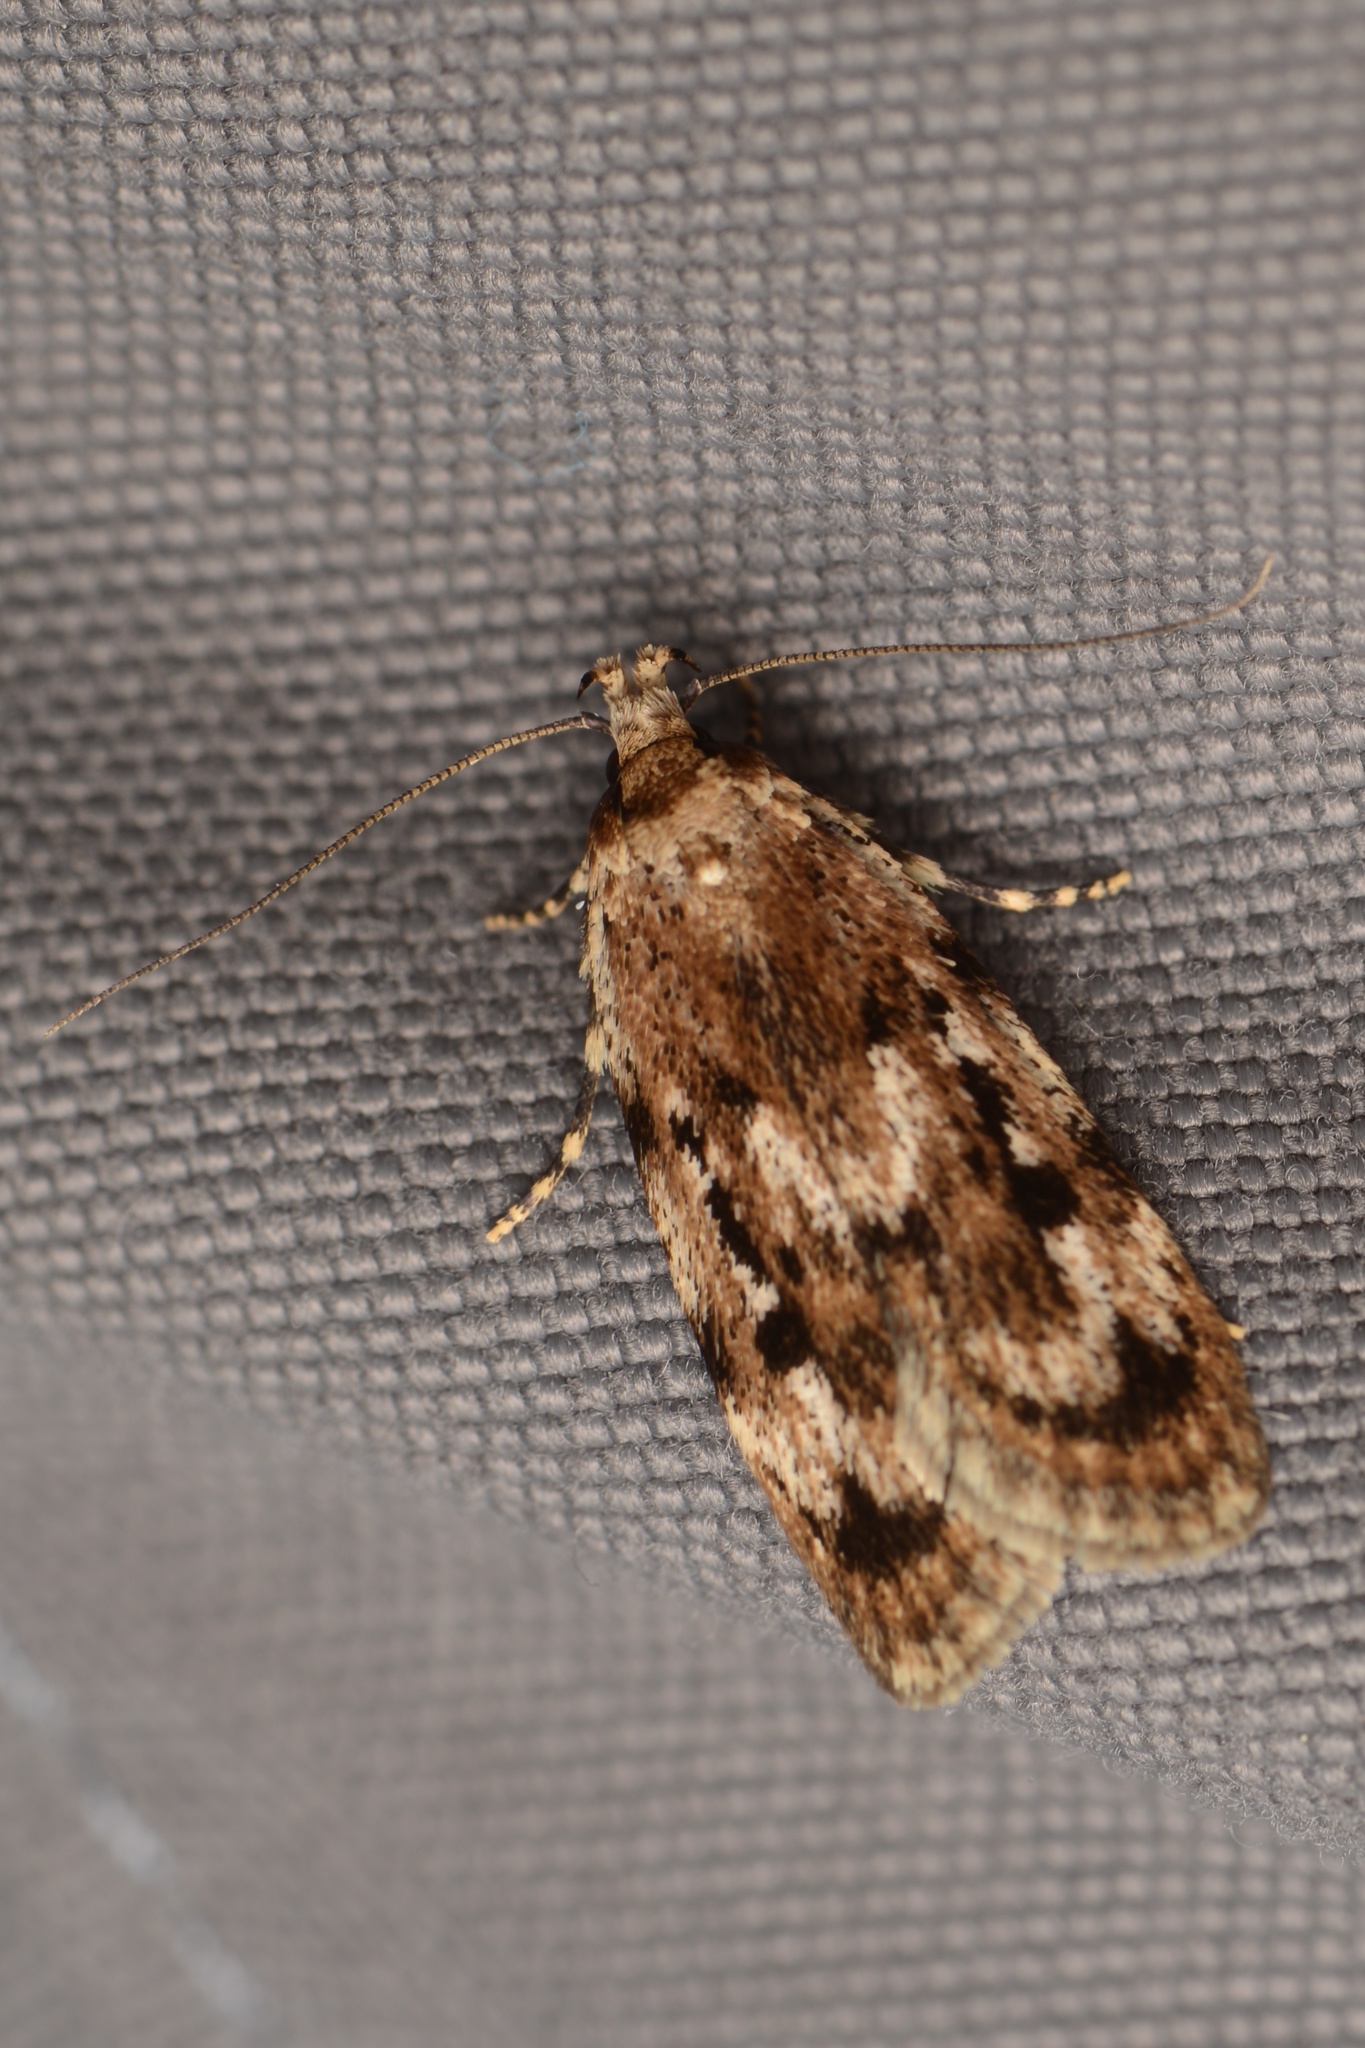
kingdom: Animalia
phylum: Arthropoda
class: Insecta
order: Lepidoptera
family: Oecophoridae
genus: Barea
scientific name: Barea exarcha
